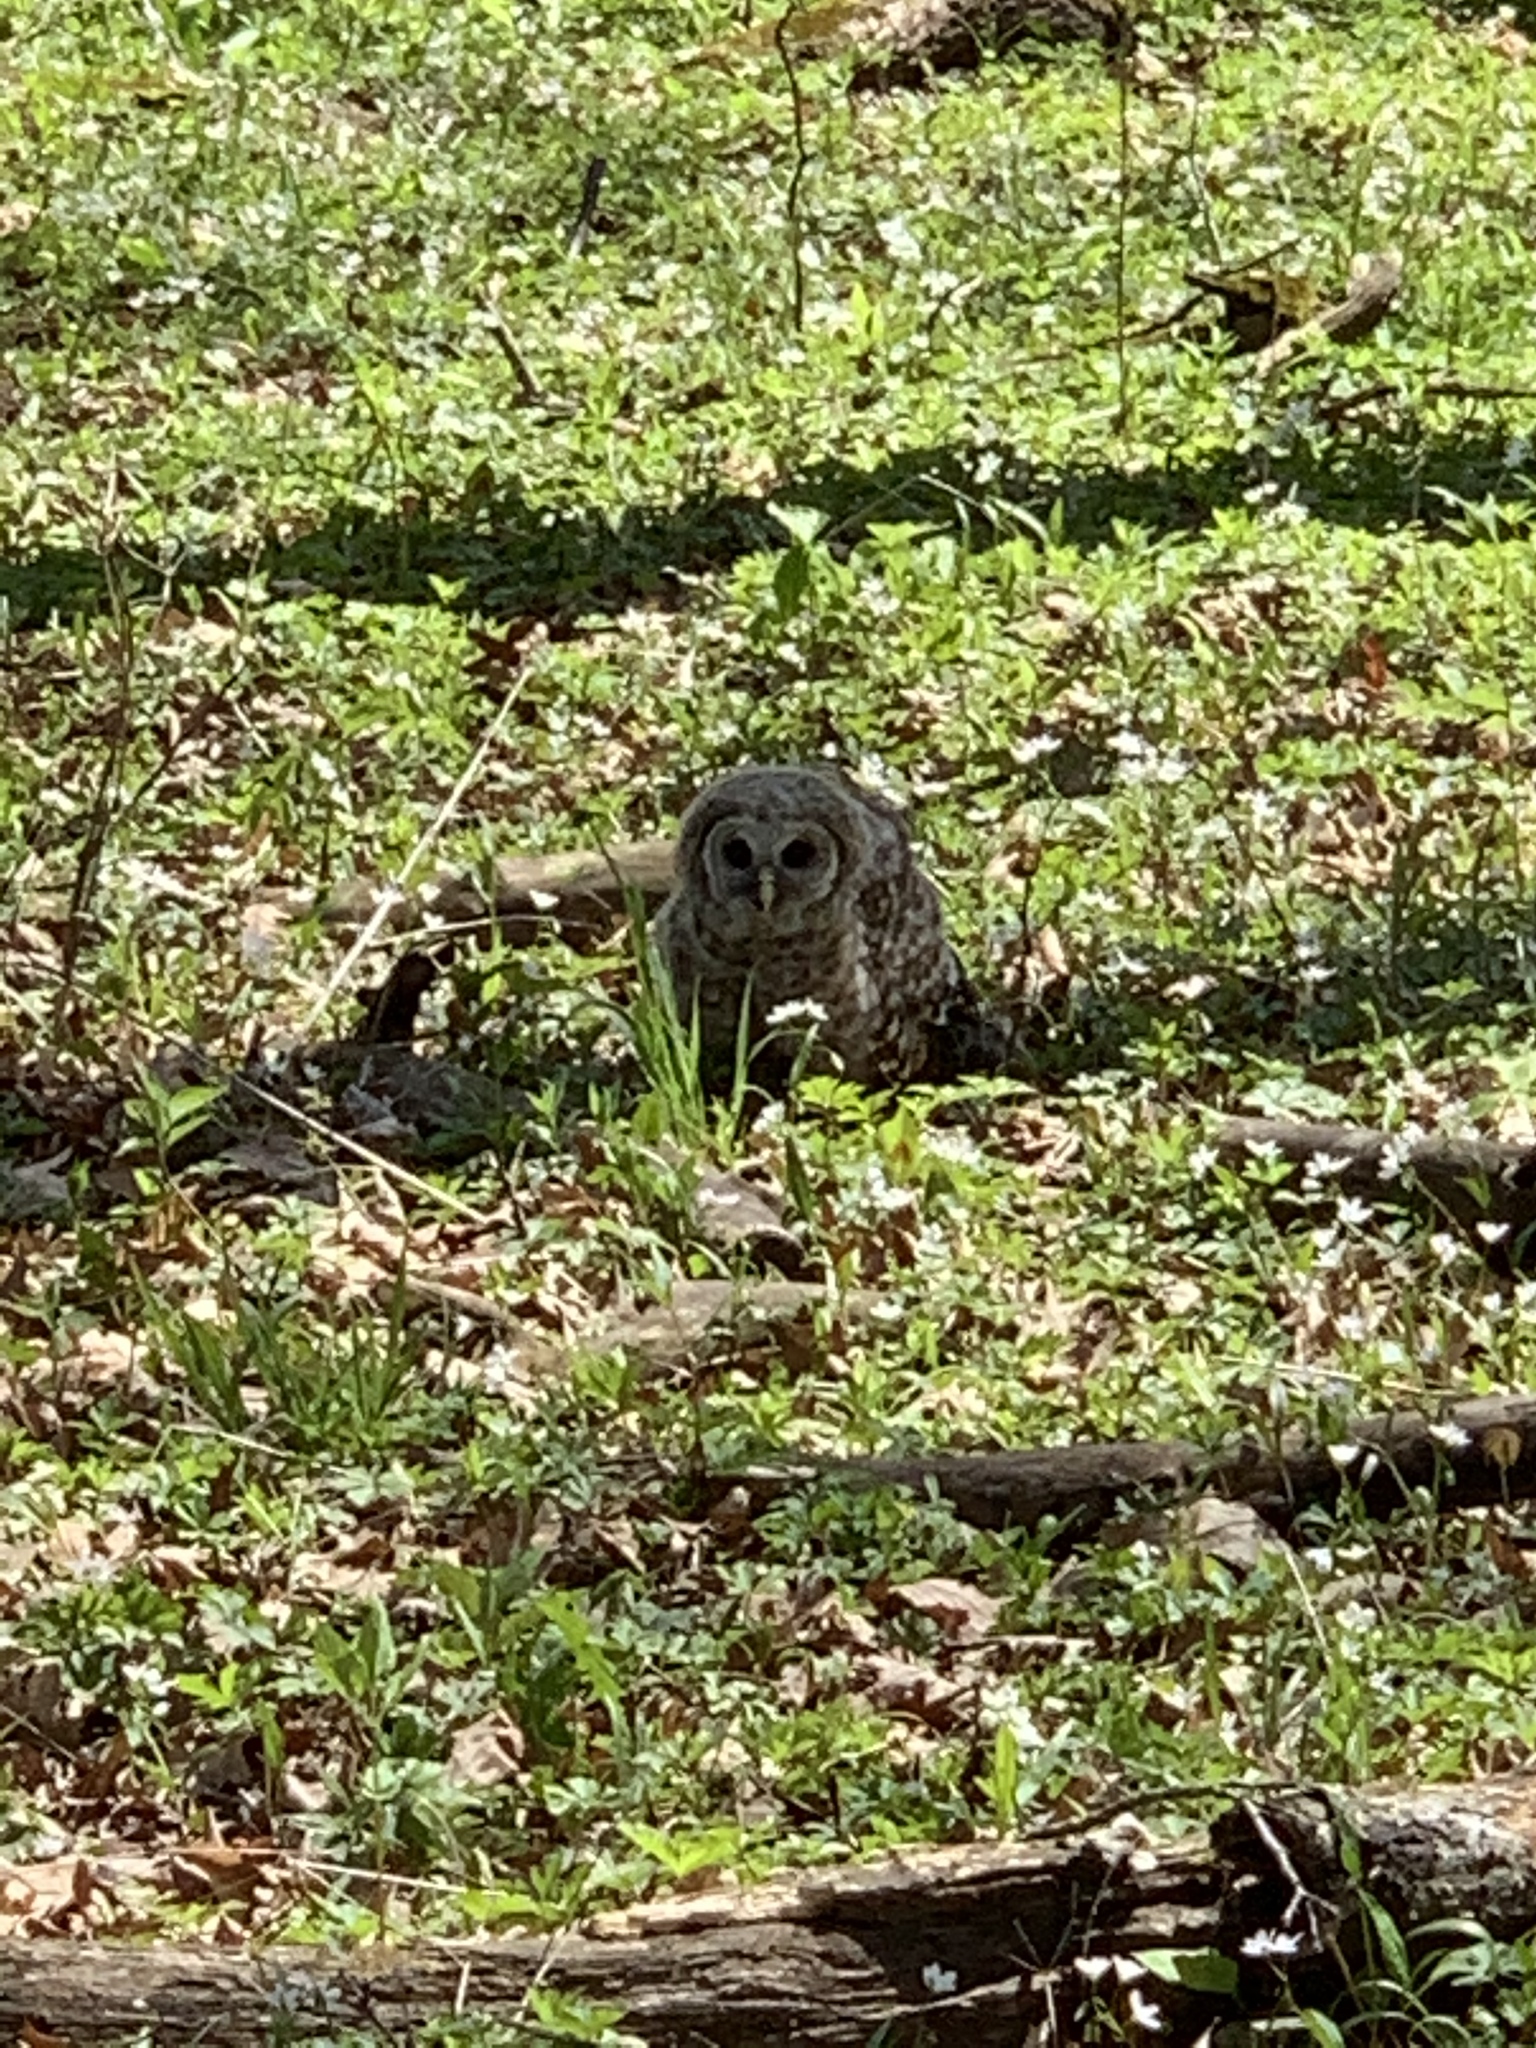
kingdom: Animalia
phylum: Chordata
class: Aves
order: Strigiformes
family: Strigidae
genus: Strix
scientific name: Strix varia
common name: Barred owl
